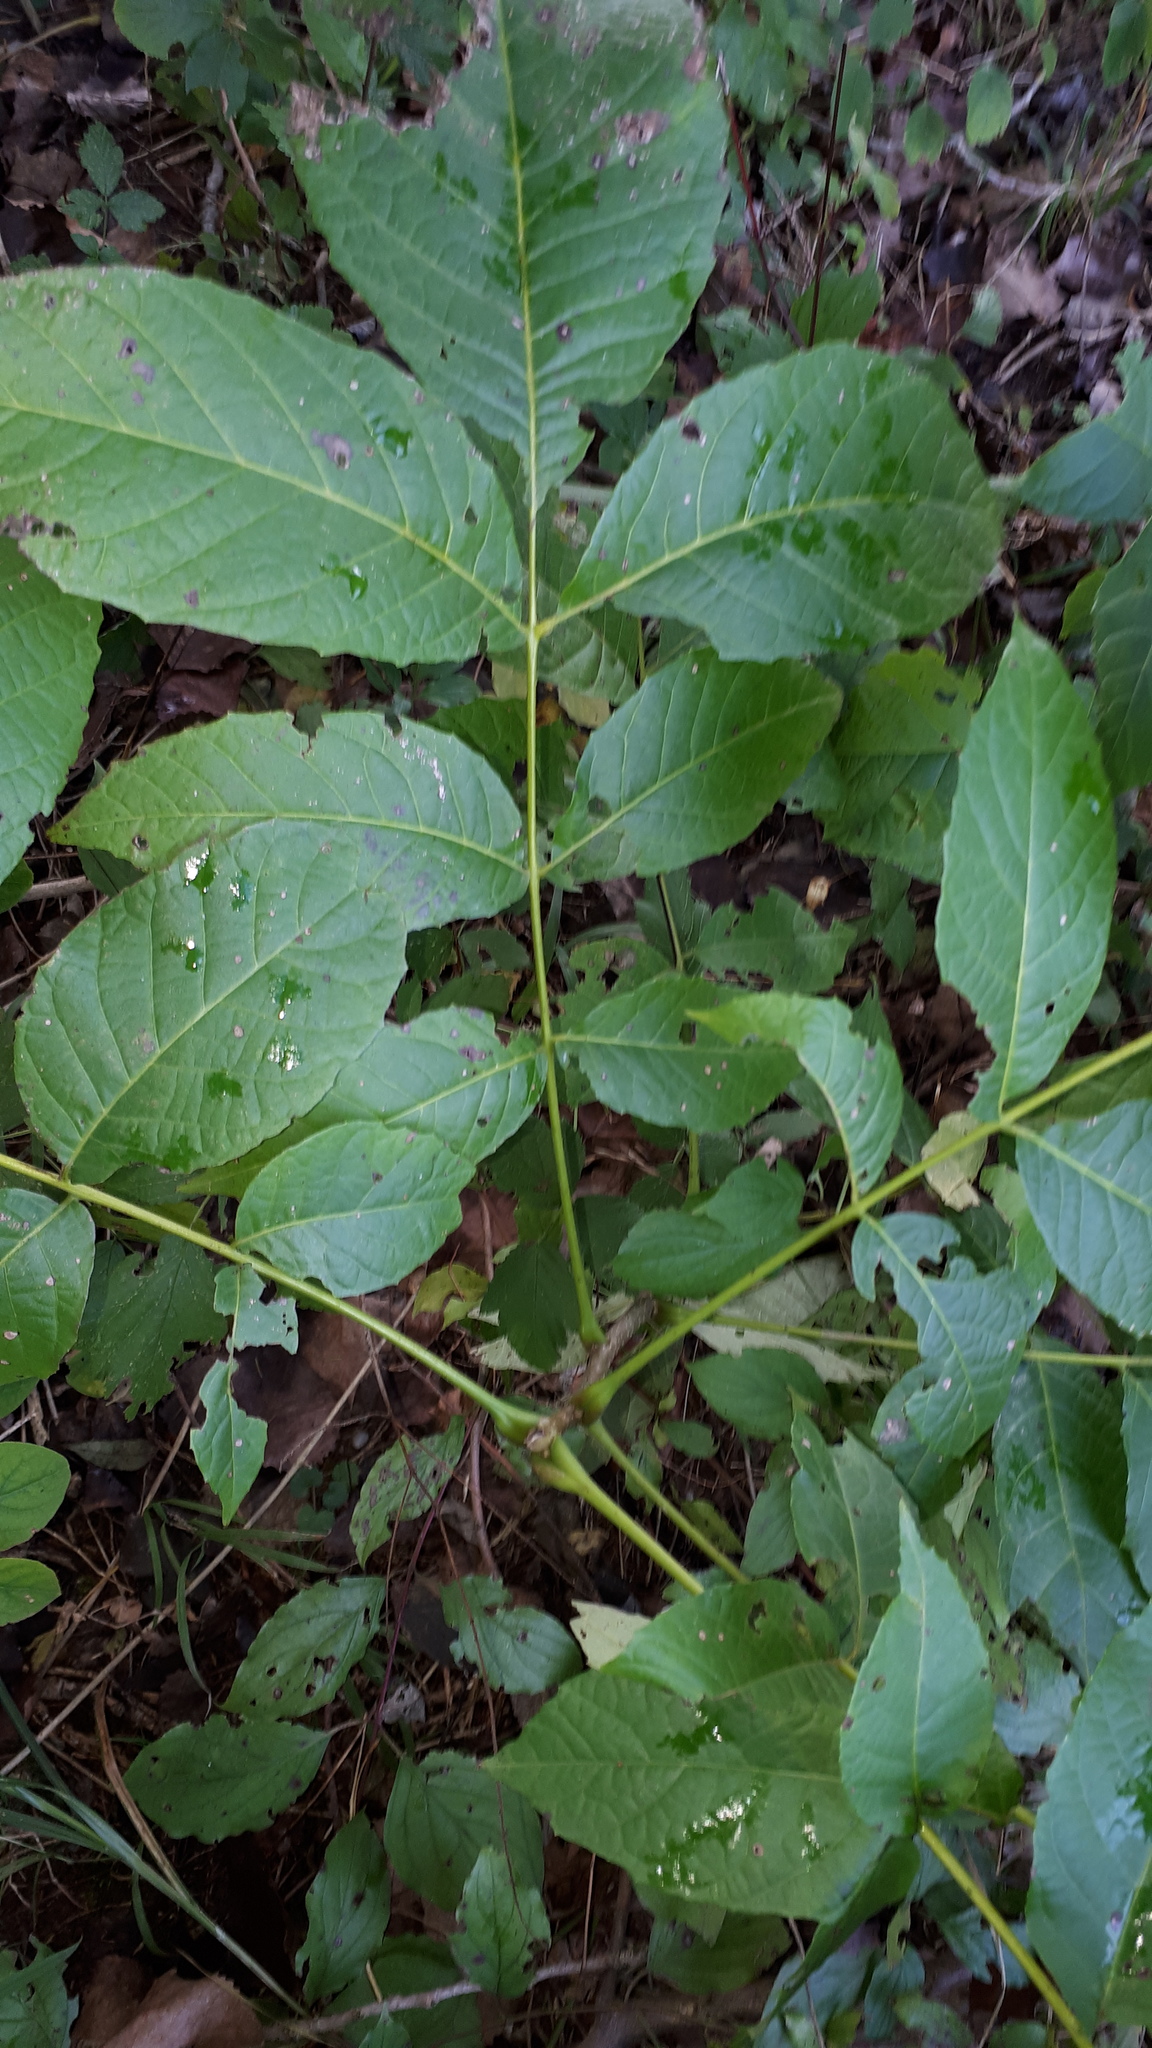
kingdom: Plantae
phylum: Tracheophyta
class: Magnoliopsida
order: Fagales
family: Juglandaceae
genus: Juglans
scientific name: Juglans regia
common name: Walnut
